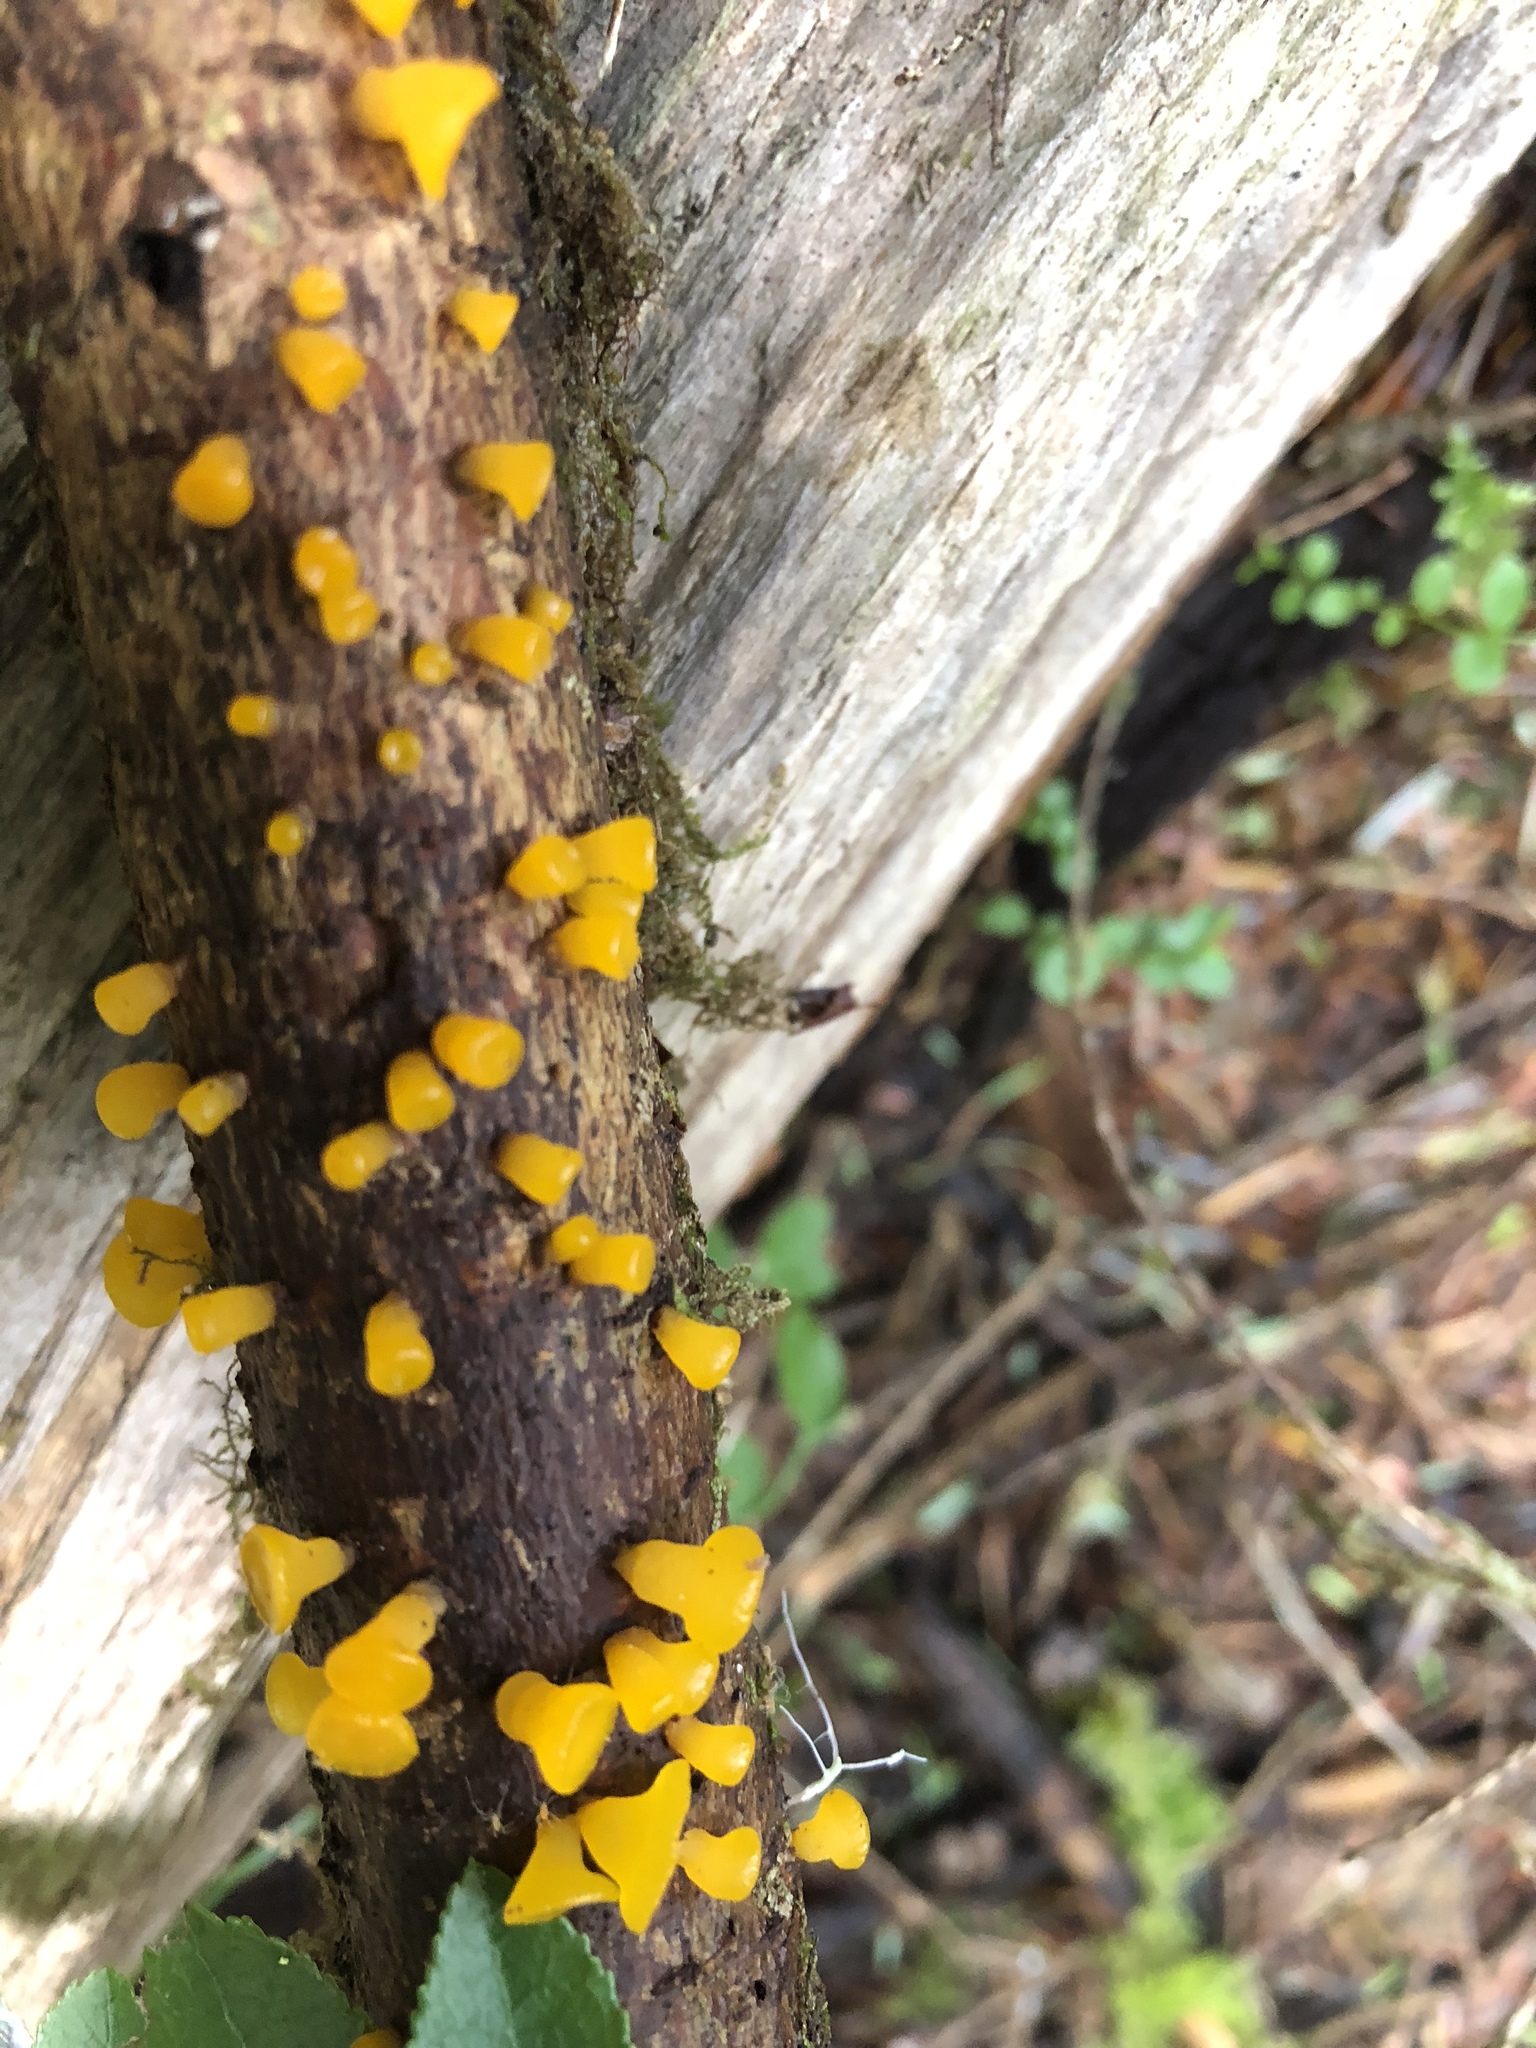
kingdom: Fungi
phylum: Basidiomycota
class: Dacrymycetes
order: Dacrymycetales
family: Dacrymycetaceae
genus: Guepiniopsis
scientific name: Guepiniopsis alpina
